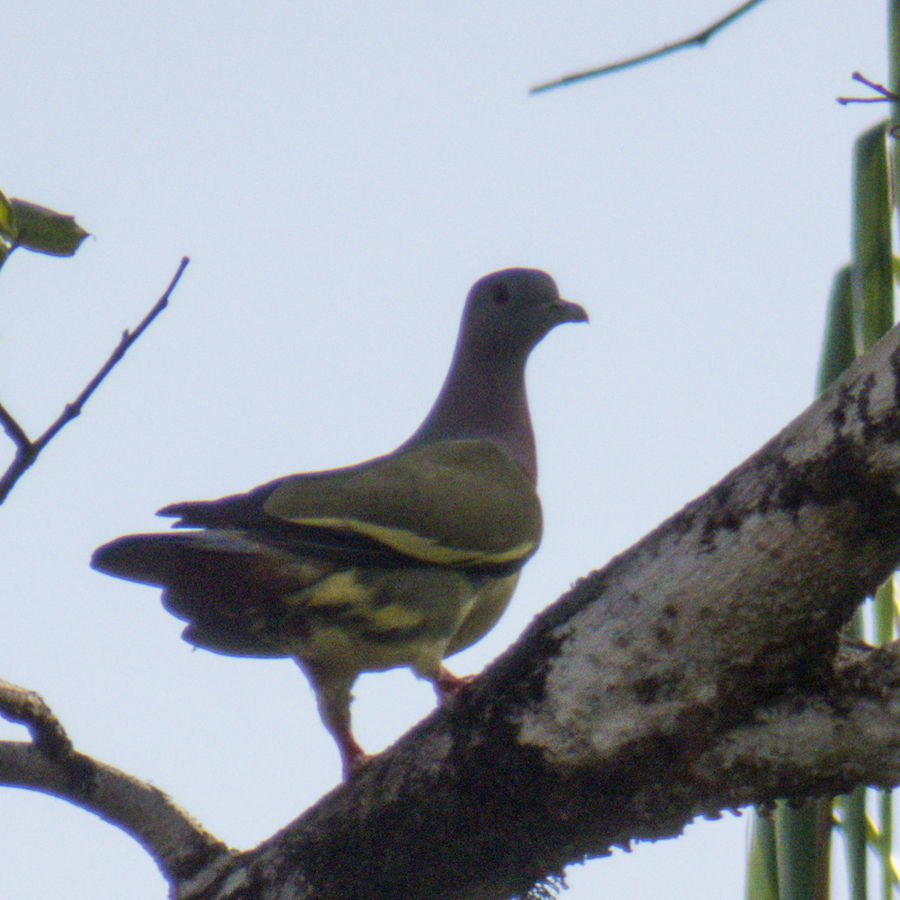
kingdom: Animalia
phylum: Chordata
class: Aves
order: Columbiformes
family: Columbidae
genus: Treron
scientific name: Treron vernans
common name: Pink-necked green pigeon
